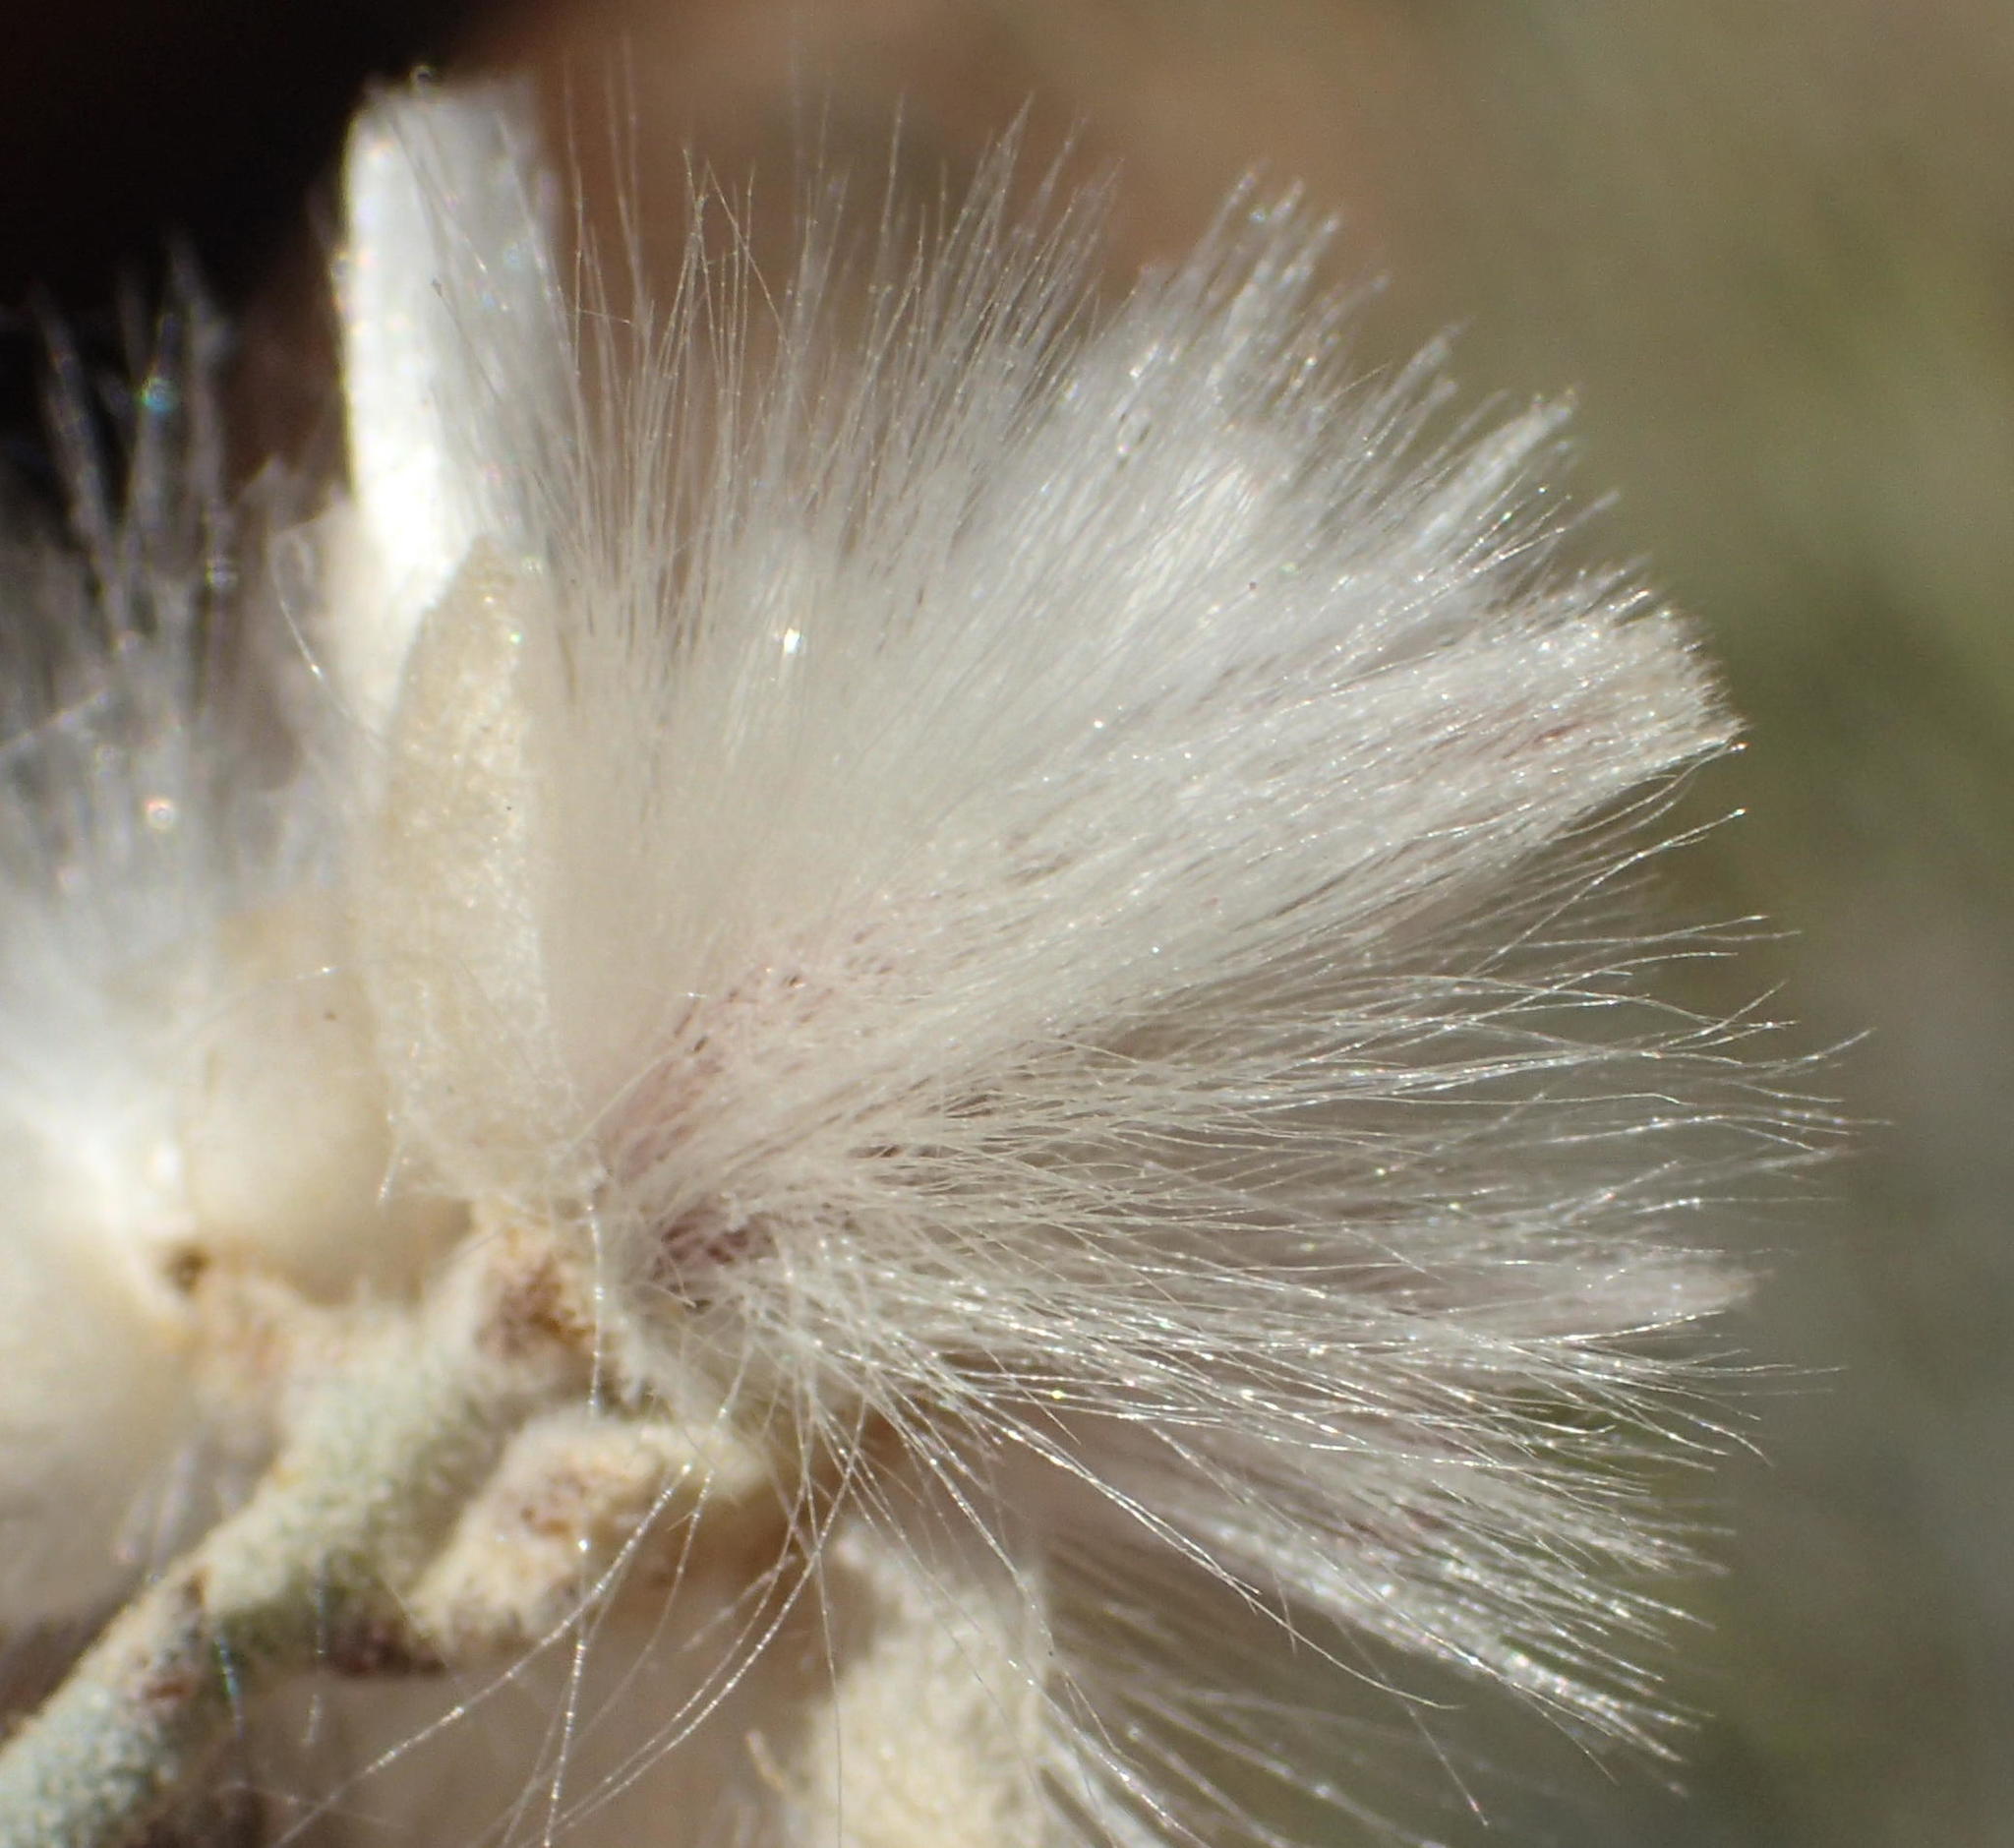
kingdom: Plantae
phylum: Tracheophyta
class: Magnoliopsida
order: Caryophyllales
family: Amaranthaceae
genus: Calicorema
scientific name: Calicorema capitata
